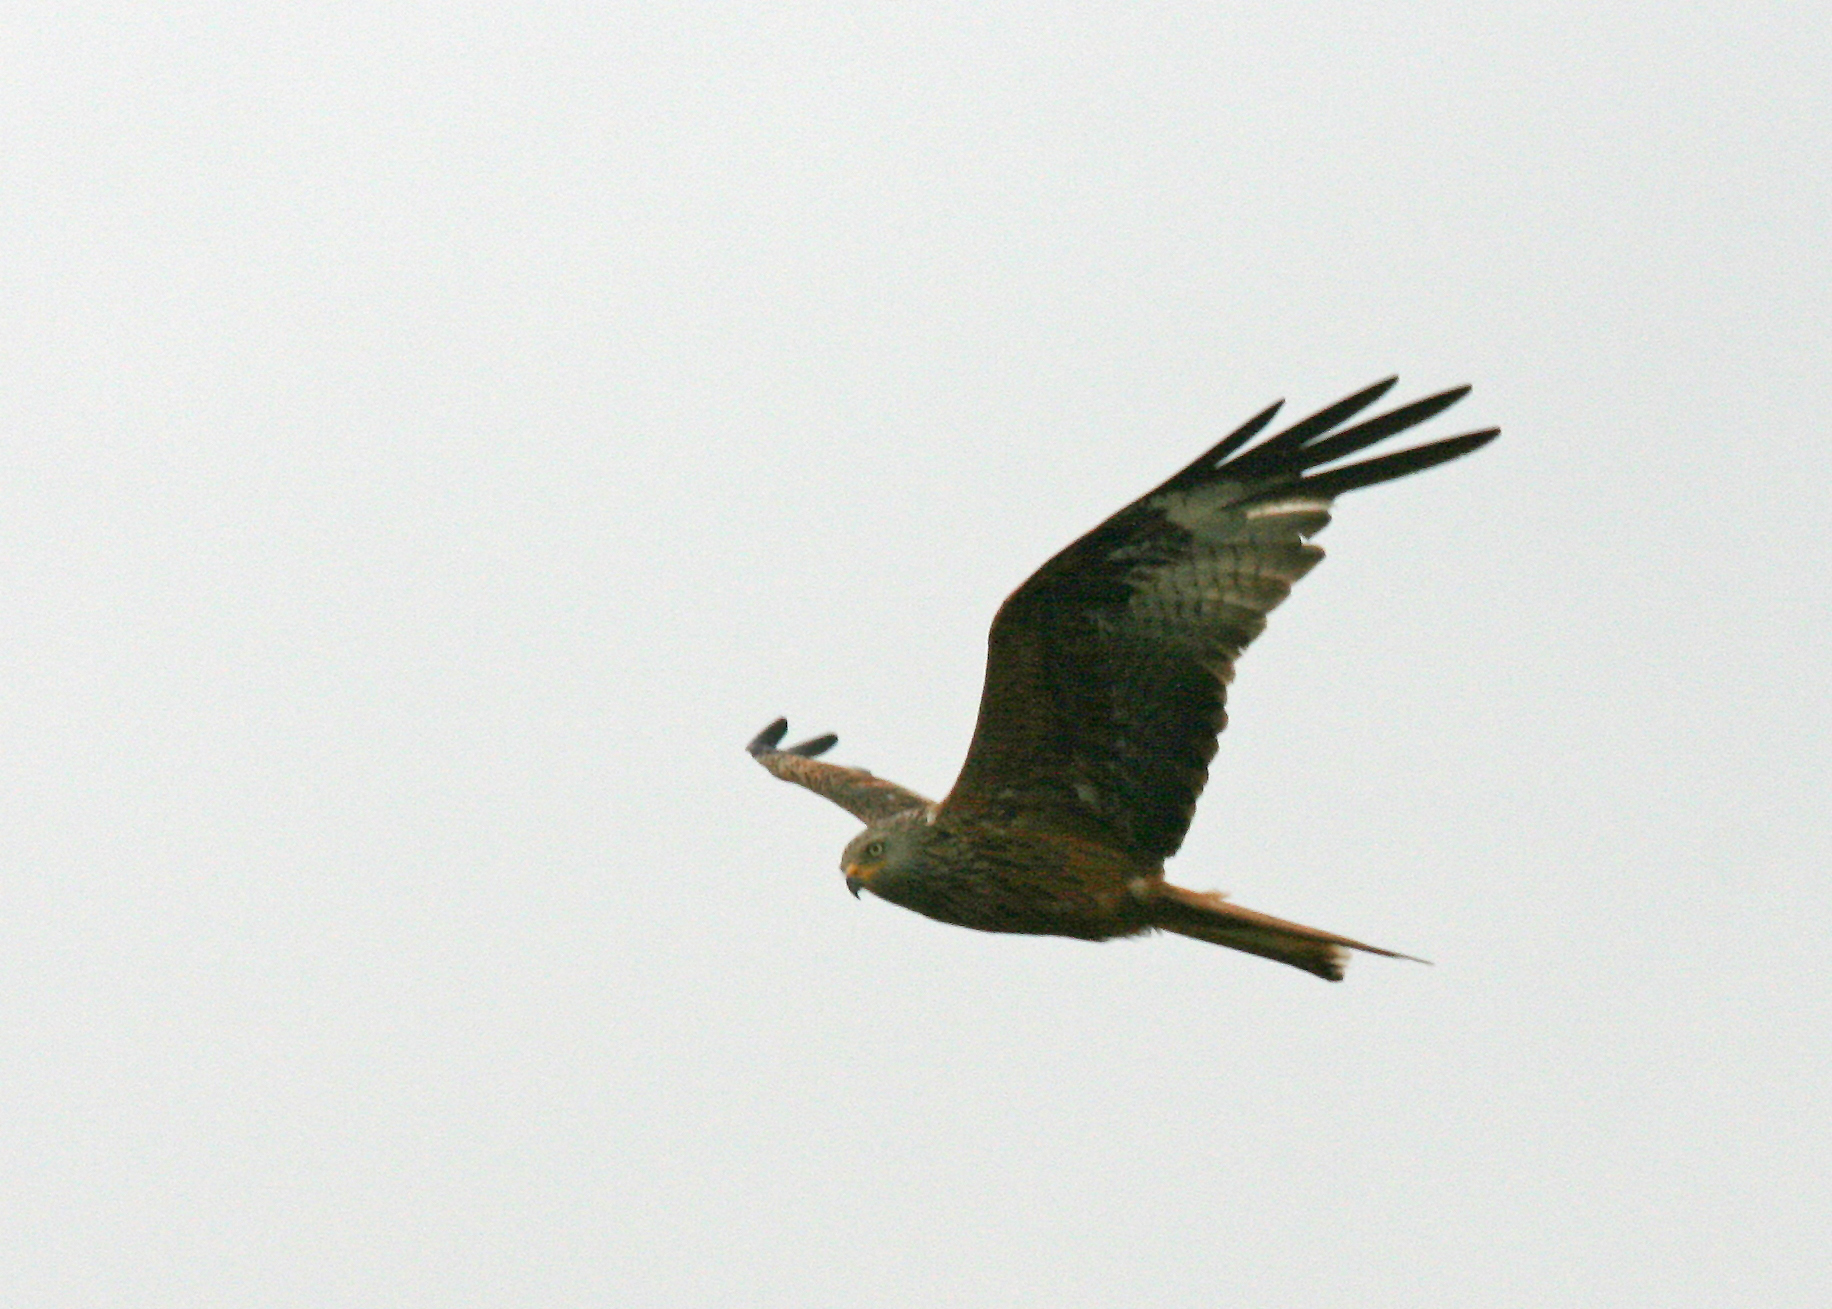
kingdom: Animalia
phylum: Chordata
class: Aves
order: Accipitriformes
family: Accipitridae
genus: Milvus
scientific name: Milvus milvus
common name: Red kite
